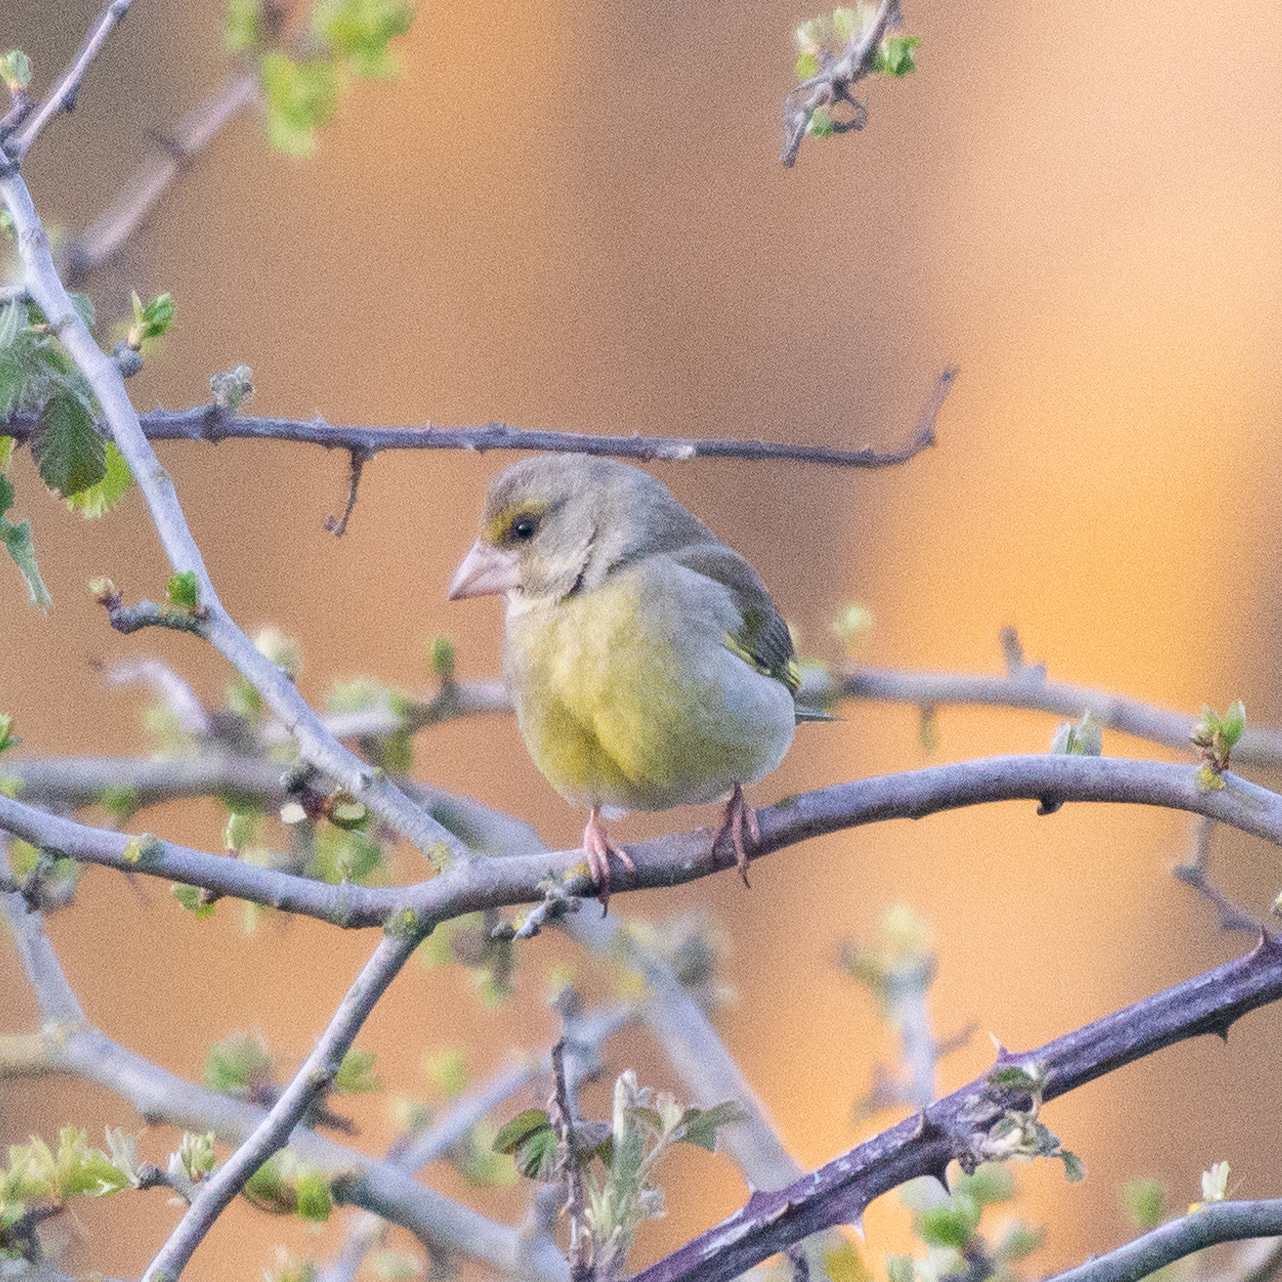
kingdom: Plantae
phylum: Tracheophyta
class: Liliopsida
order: Poales
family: Poaceae
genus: Chloris
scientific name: Chloris chloris
